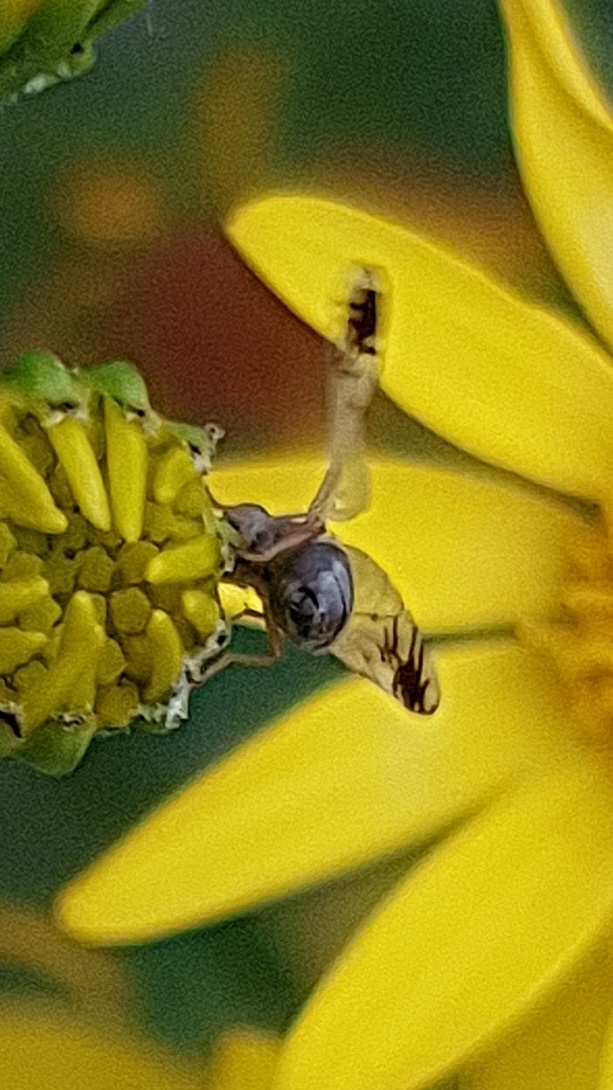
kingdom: Animalia
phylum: Arthropoda
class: Insecta
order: Diptera
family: Tephritidae
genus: Trupanea
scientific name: Trupanea stellata
